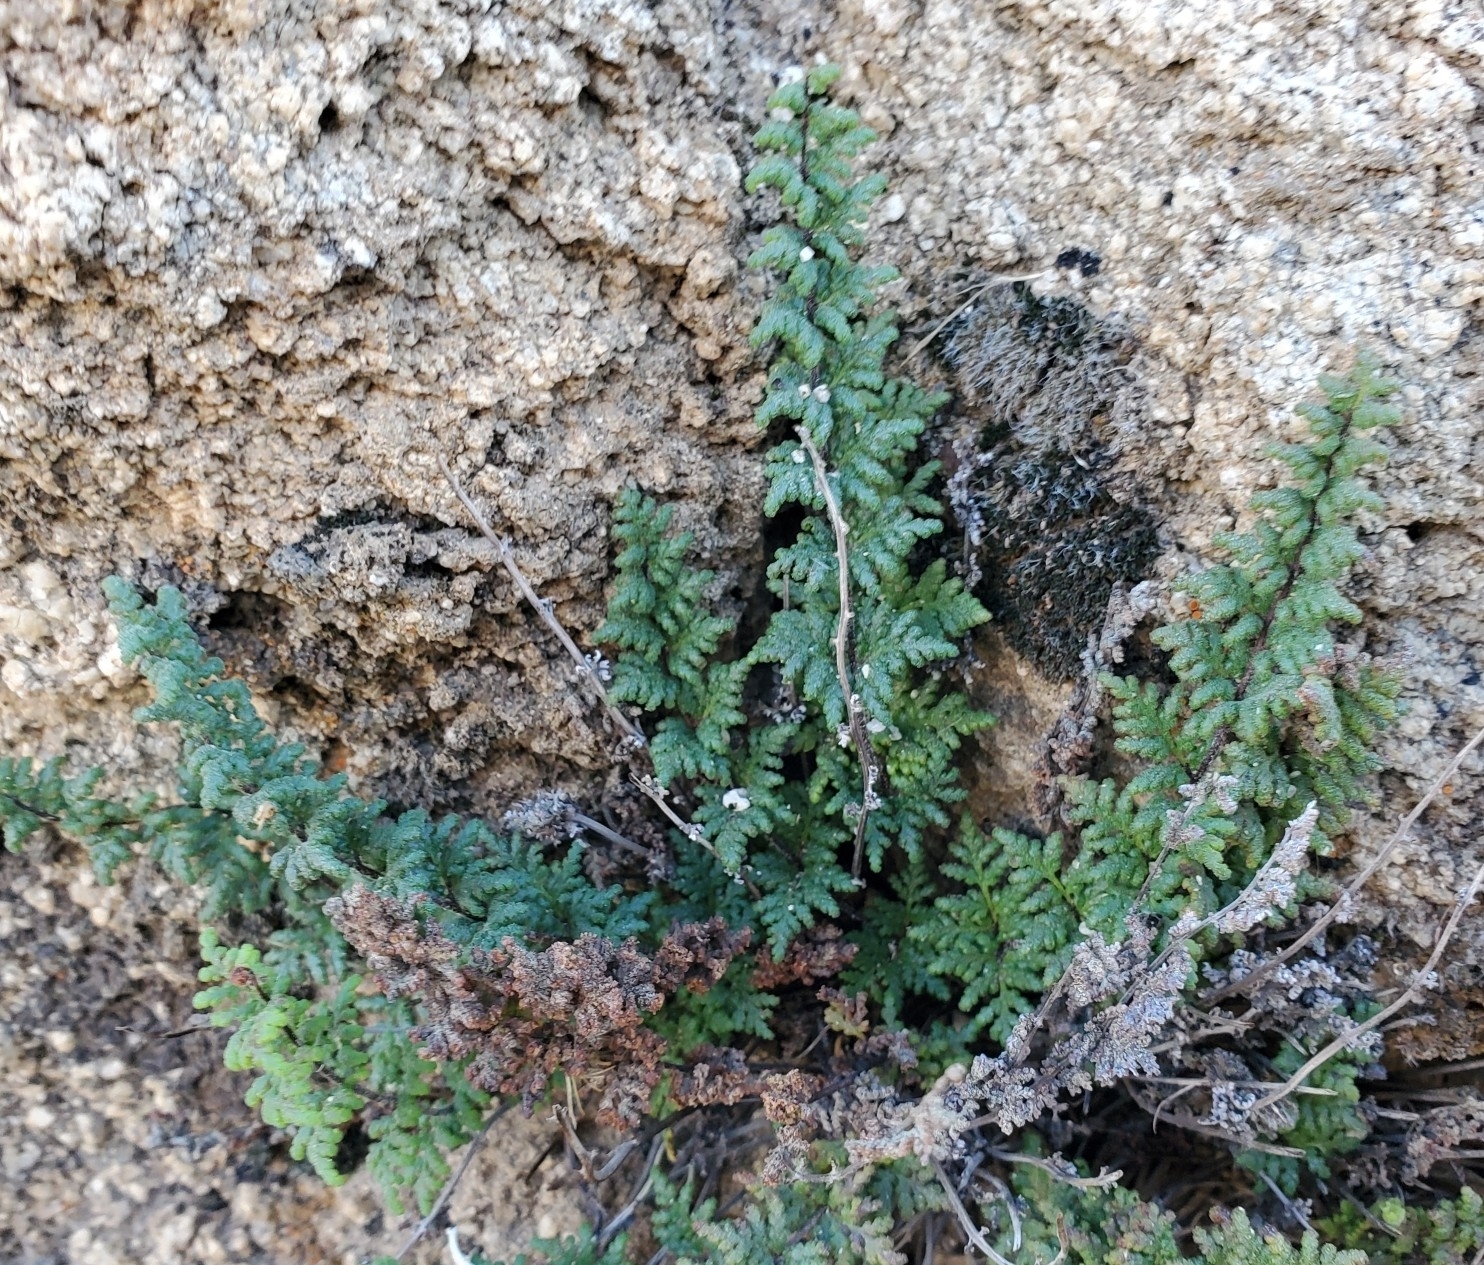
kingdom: Plantae
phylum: Tracheophyta
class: Polypodiopsida
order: Polypodiales
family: Pteridaceae
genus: Myriopteris
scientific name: Myriopteris viscida
